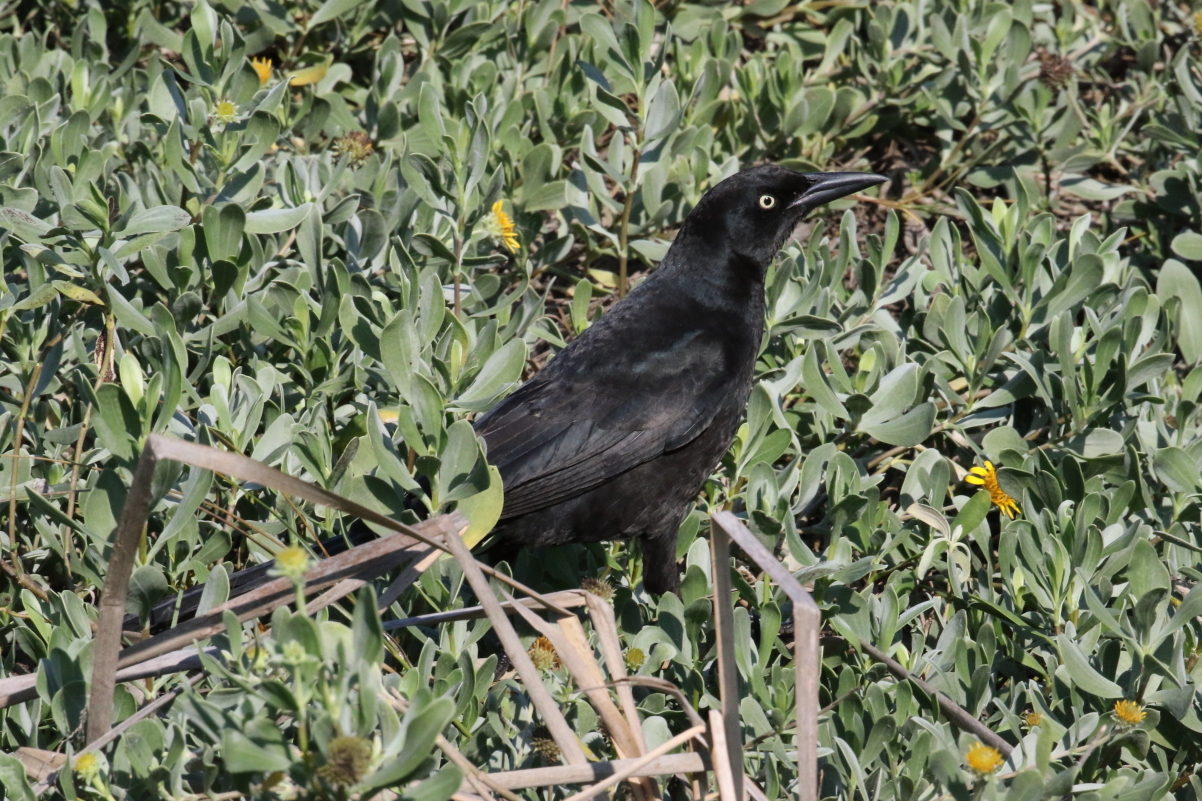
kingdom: Animalia
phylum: Chordata
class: Aves
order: Passeriformes
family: Icteridae
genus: Quiscalus
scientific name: Quiscalus mexicanus
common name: Great-tailed grackle
